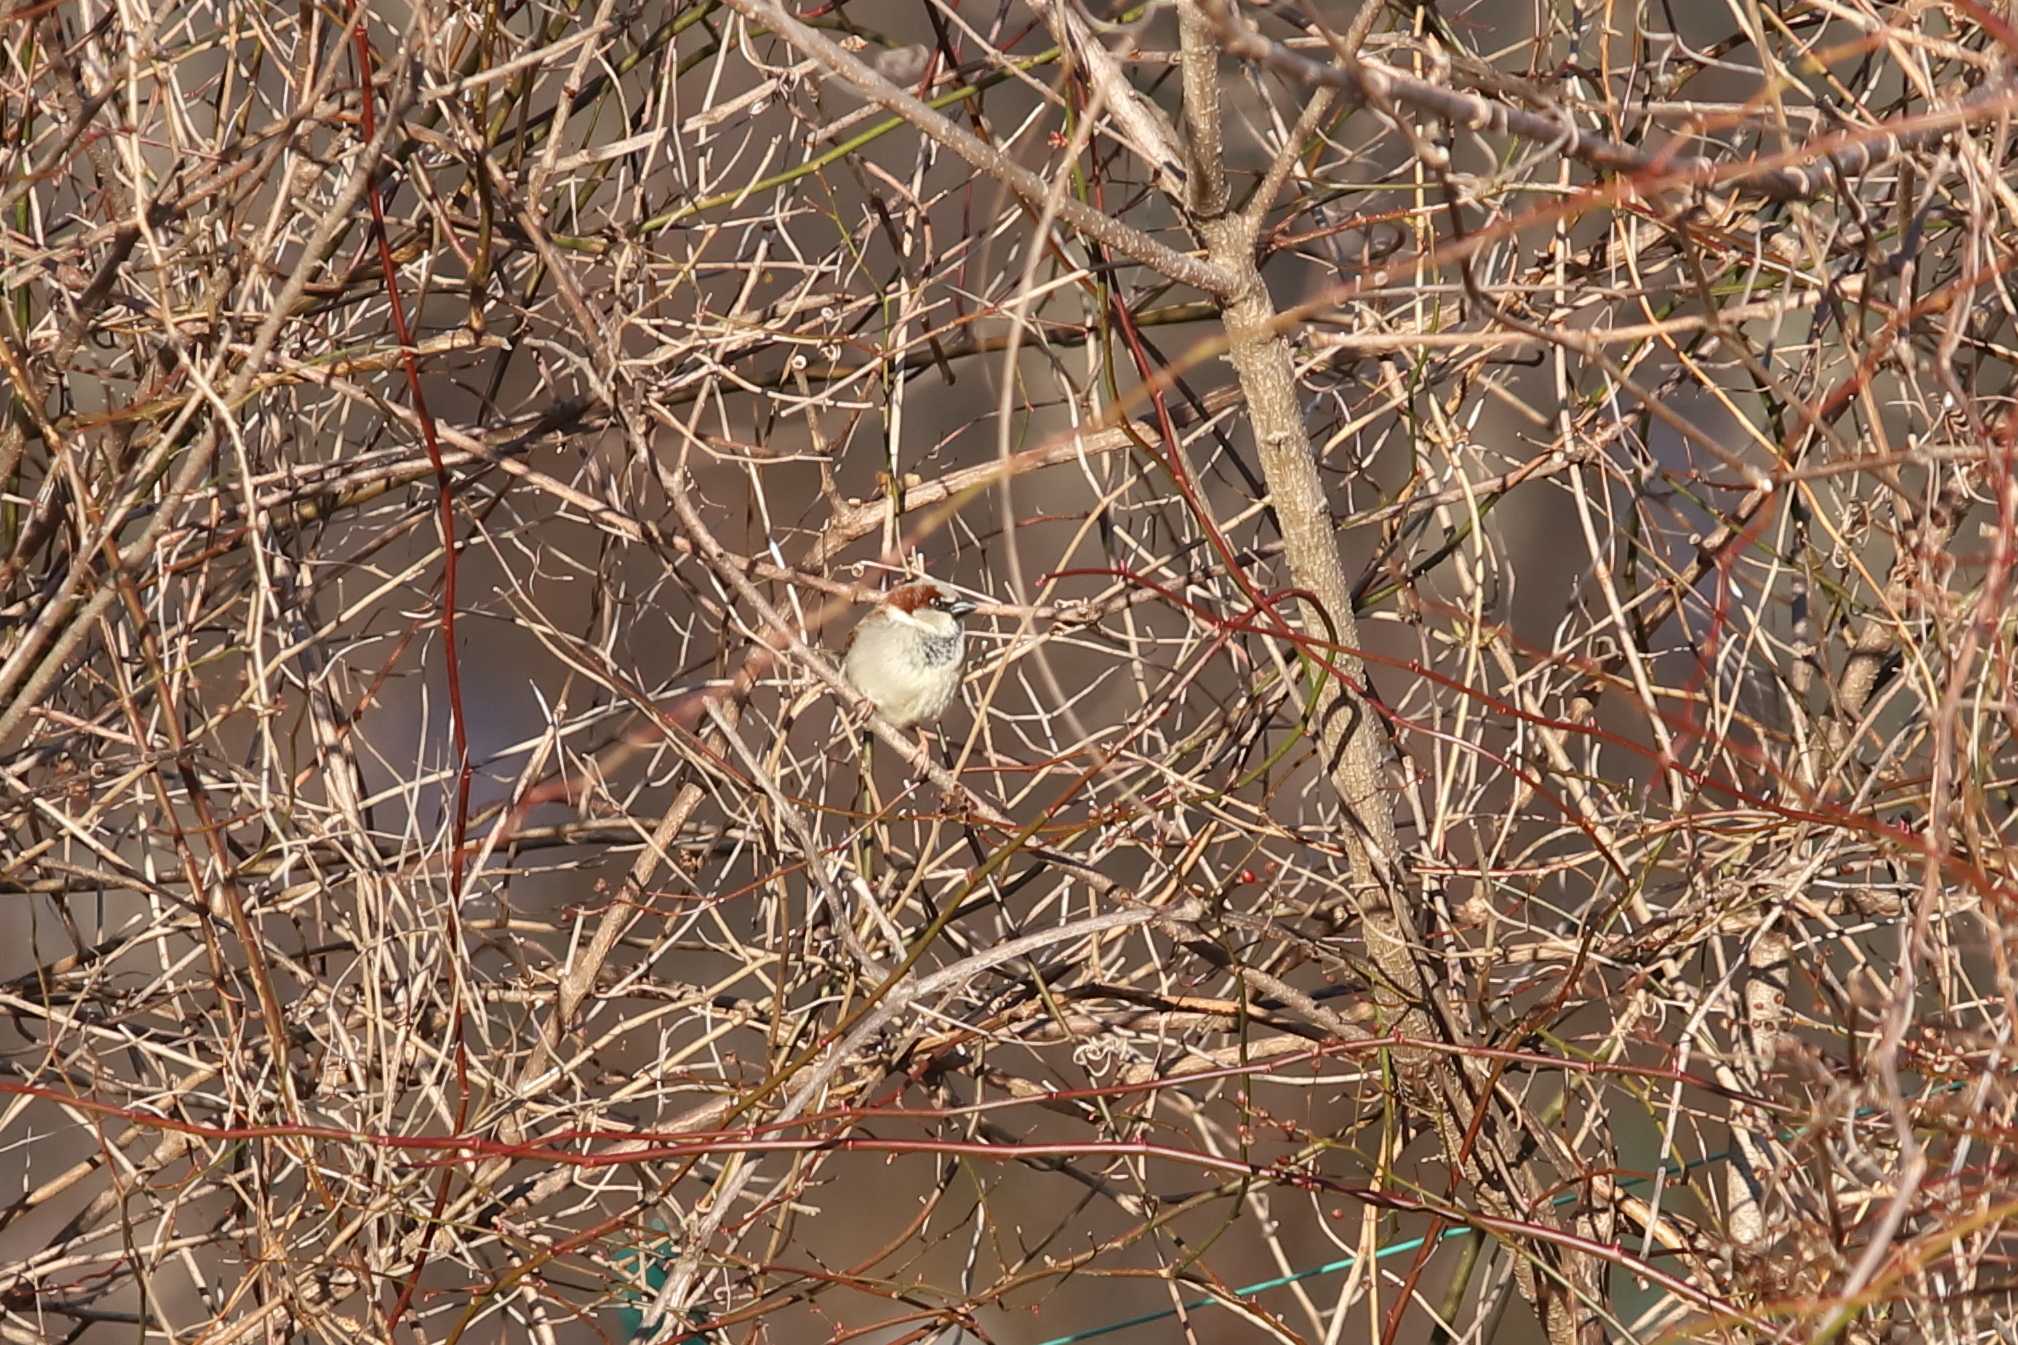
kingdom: Animalia
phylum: Chordata
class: Aves
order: Passeriformes
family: Passeridae
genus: Passer
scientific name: Passer domesticus
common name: House sparrow
